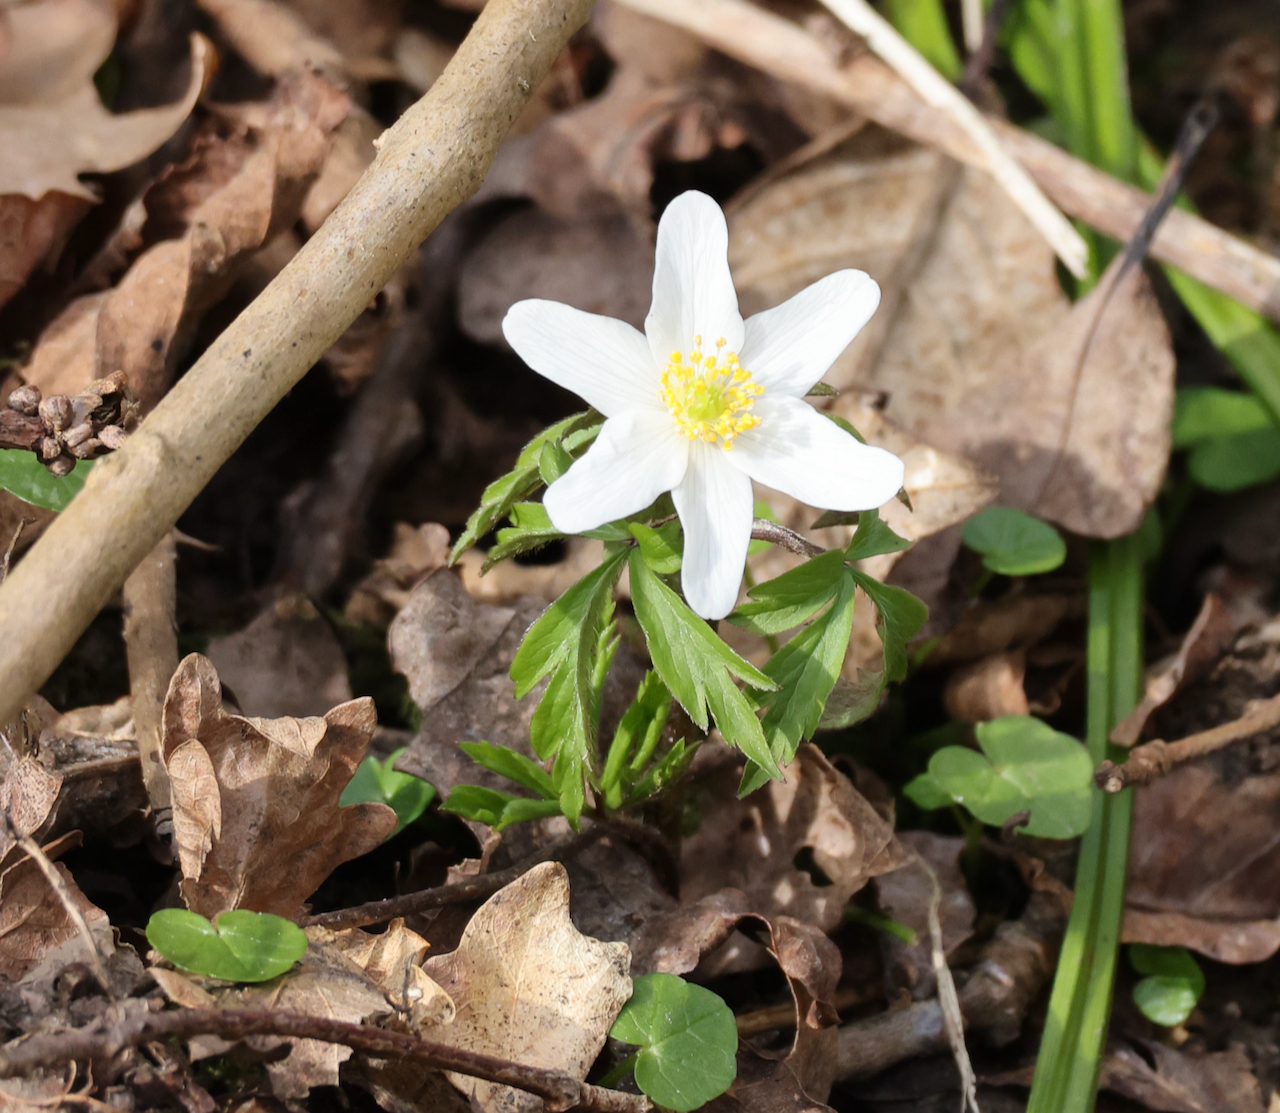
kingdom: Plantae
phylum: Tracheophyta
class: Magnoliopsida
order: Ranunculales
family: Ranunculaceae
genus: Anemone
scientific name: Anemone nemorosa
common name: Wood anemone
